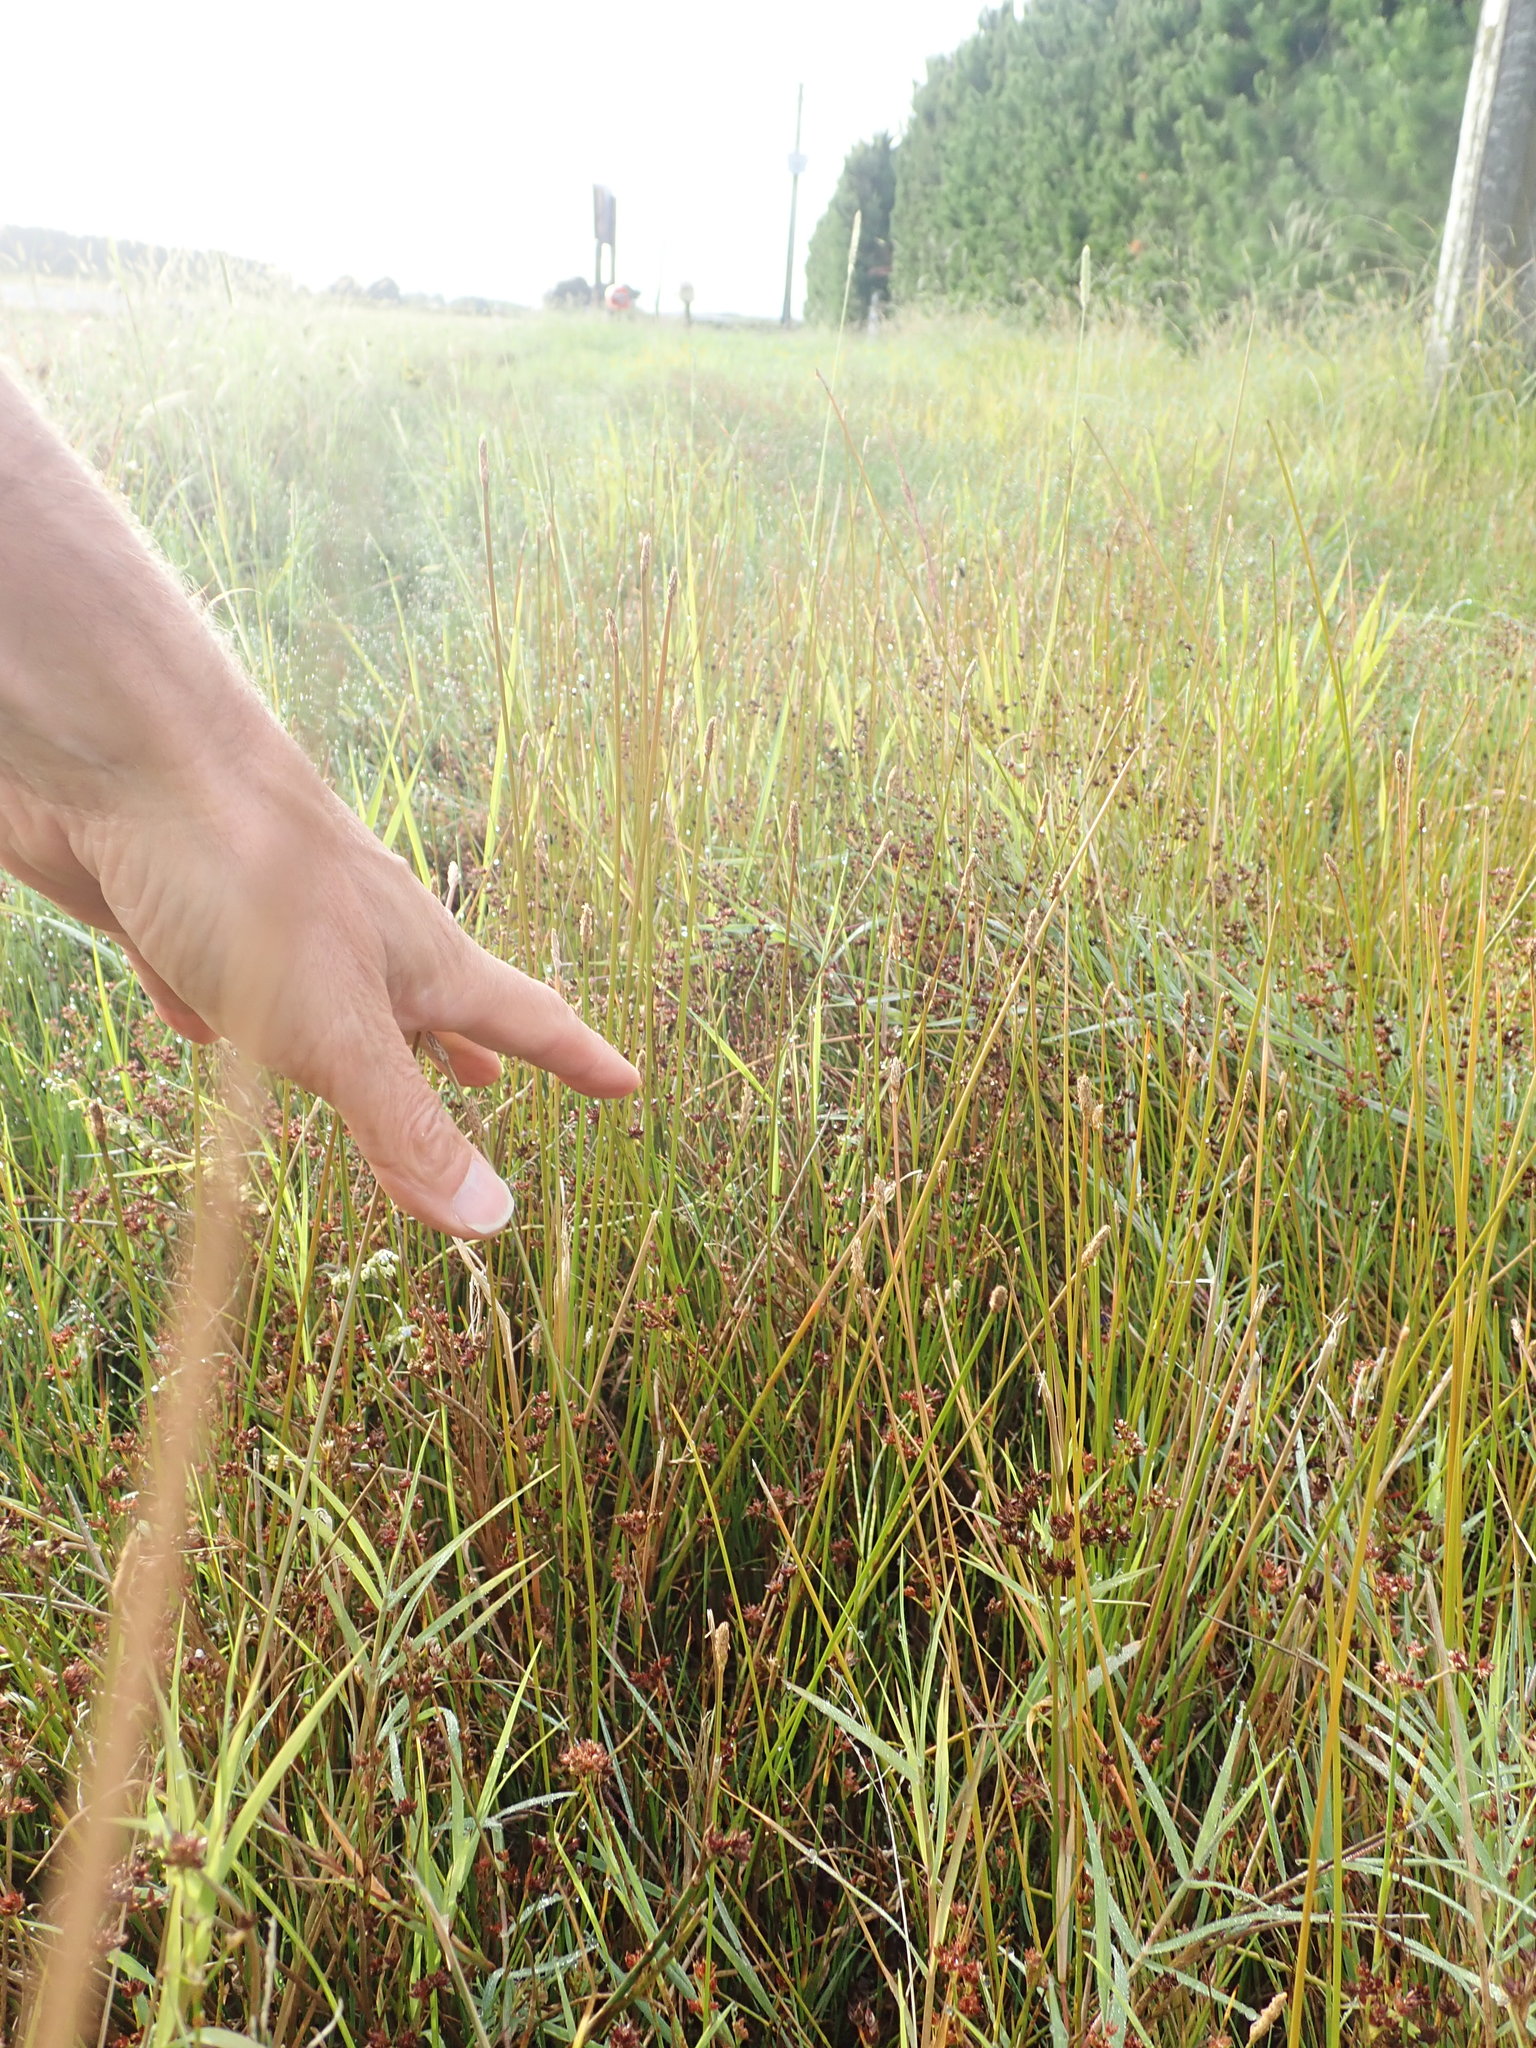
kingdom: Plantae
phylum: Tracheophyta
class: Liliopsida
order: Poales
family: Cyperaceae
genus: Eleocharis
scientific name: Eleocharis acuta
